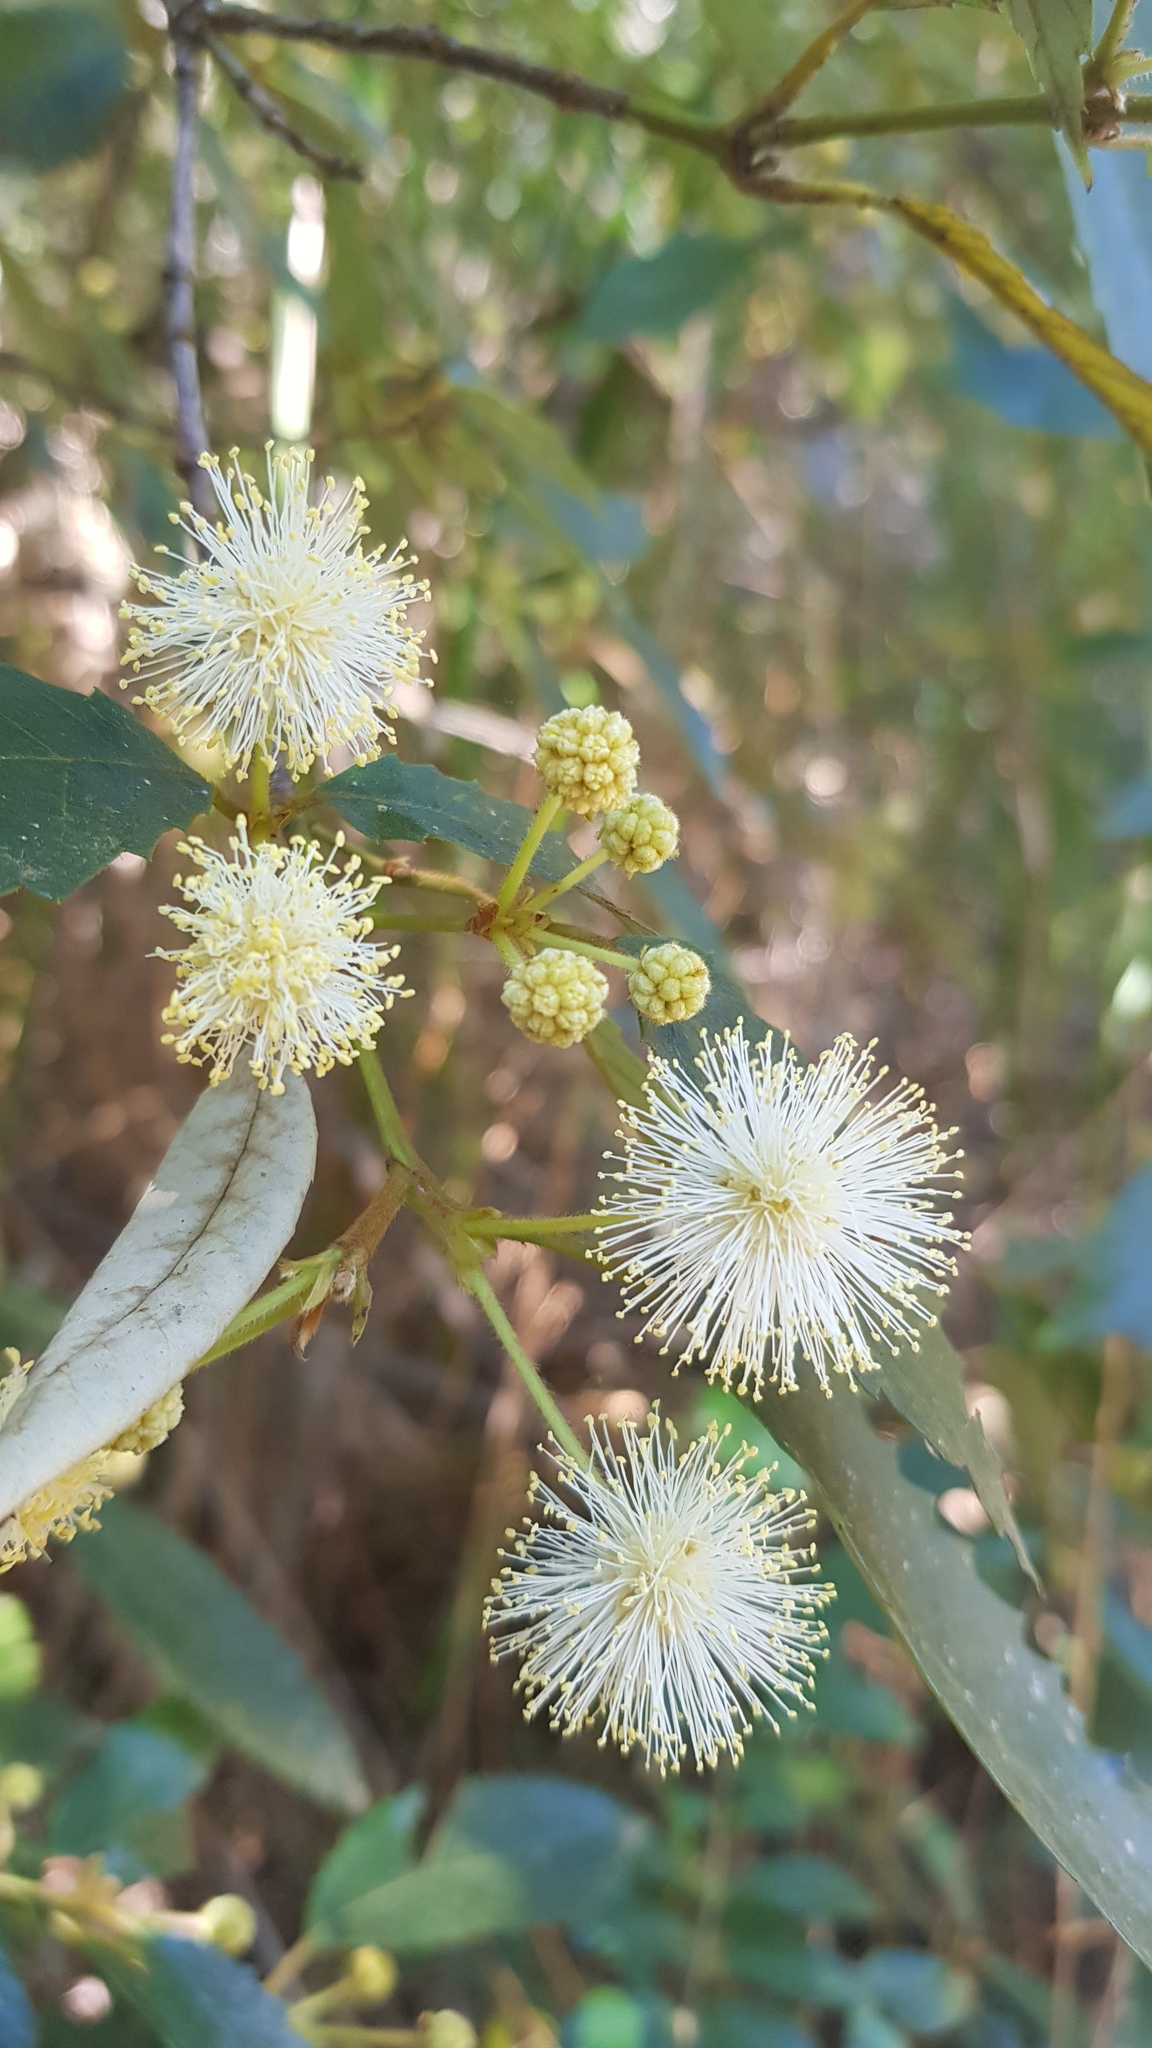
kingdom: Plantae
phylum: Tracheophyta
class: Magnoliopsida
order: Oxalidales
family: Cunoniaceae
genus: Callicoma
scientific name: Callicoma serratifolia
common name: Black wattle
